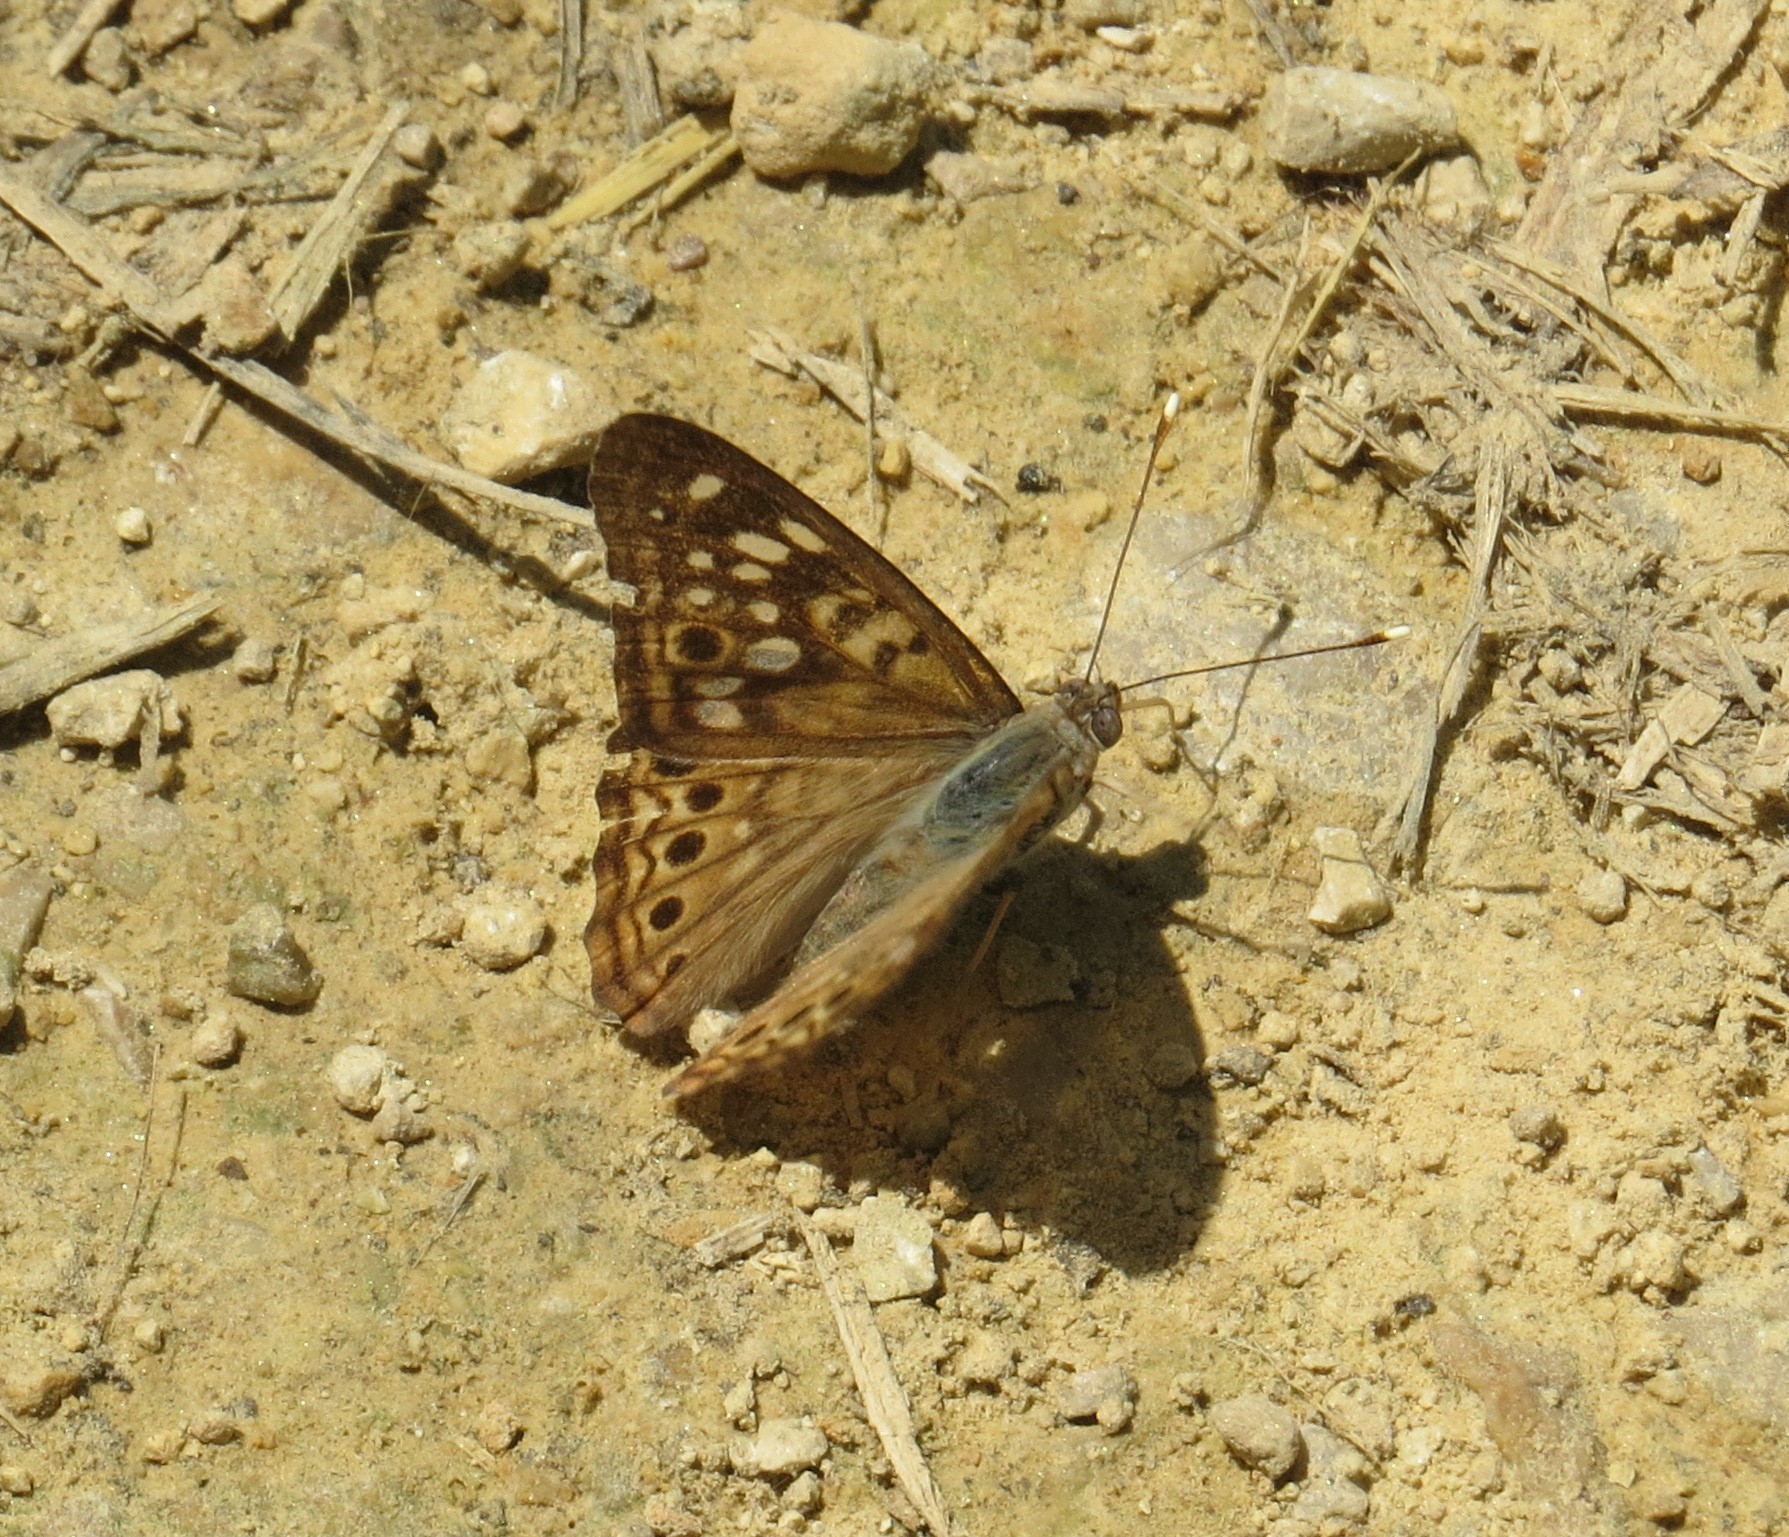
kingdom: Animalia
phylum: Arthropoda
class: Insecta
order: Lepidoptera
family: Nymphalidae
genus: Asterocampa
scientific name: Asterocampa celtis
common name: Hackberry emperor
